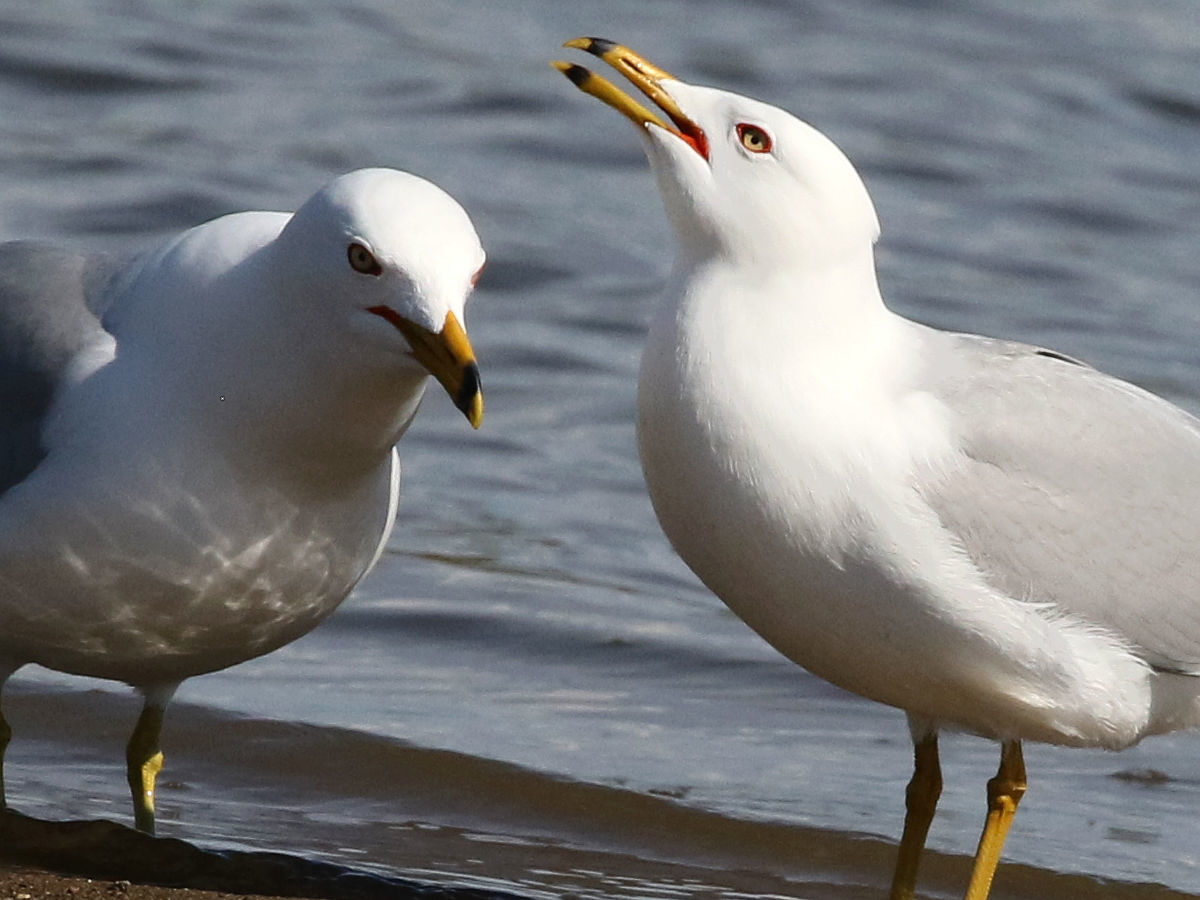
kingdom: Animalia
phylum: Chordata
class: Aves
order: Charadriiformes
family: Laridae
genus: Larus
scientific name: Larus delawarensis
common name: Ring-billed gull
